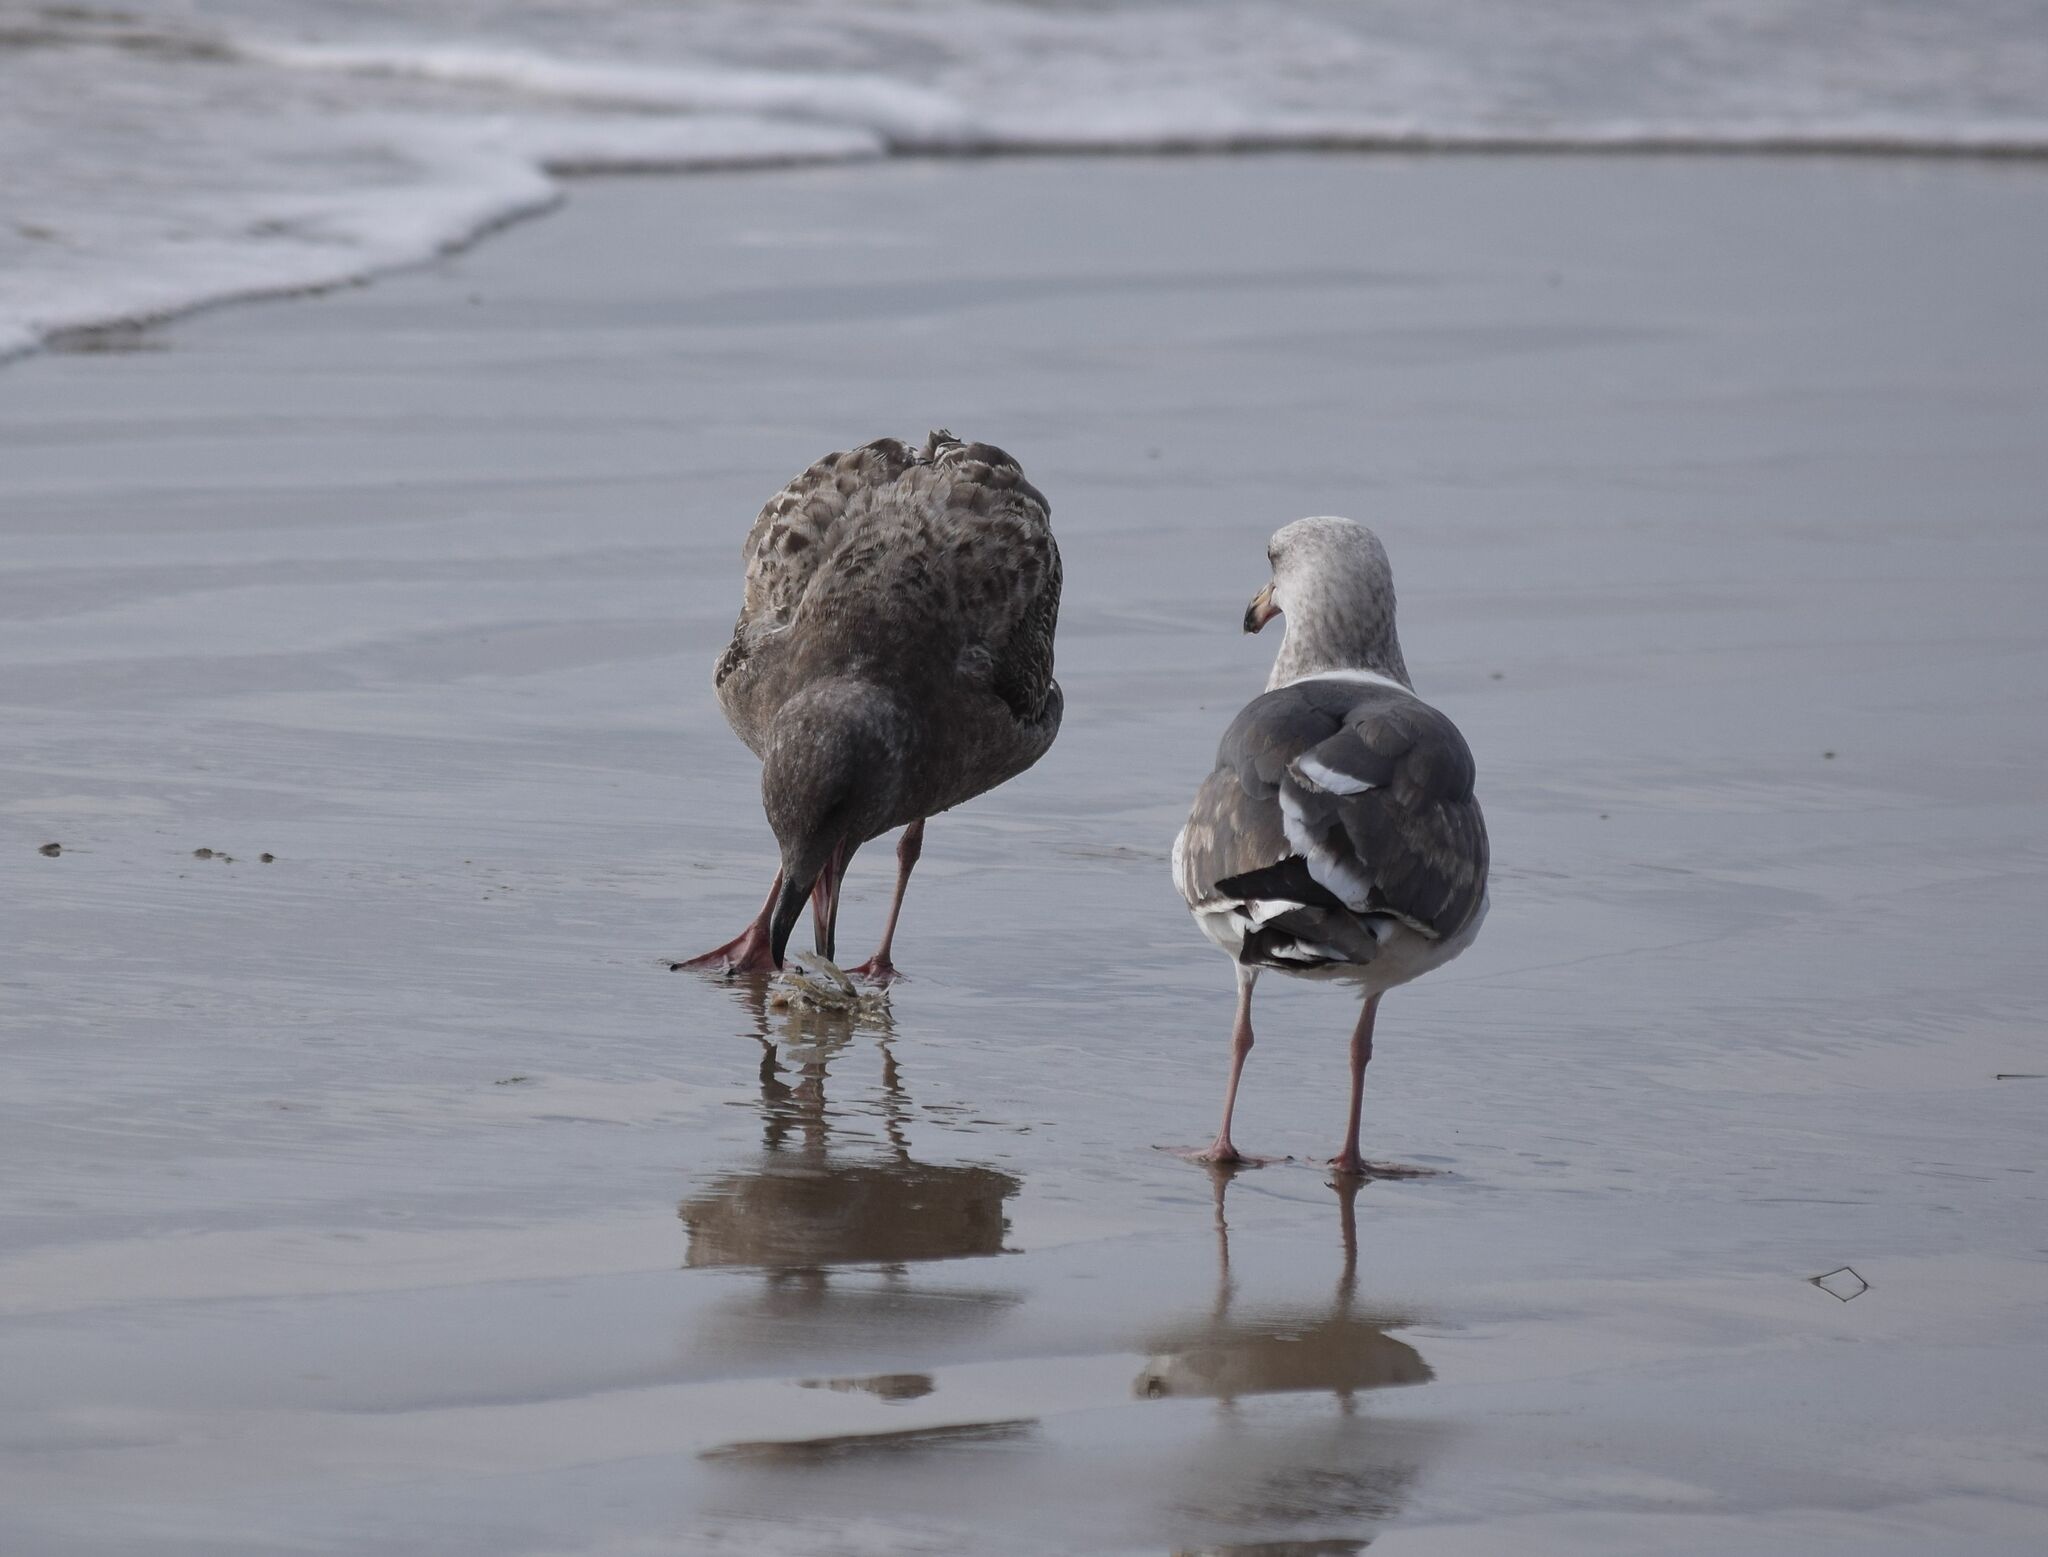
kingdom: Animalia
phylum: Chordata
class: Aves
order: Charadriiformes
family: Laridae
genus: Larus
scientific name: Larus occidentalis
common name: Western gull
